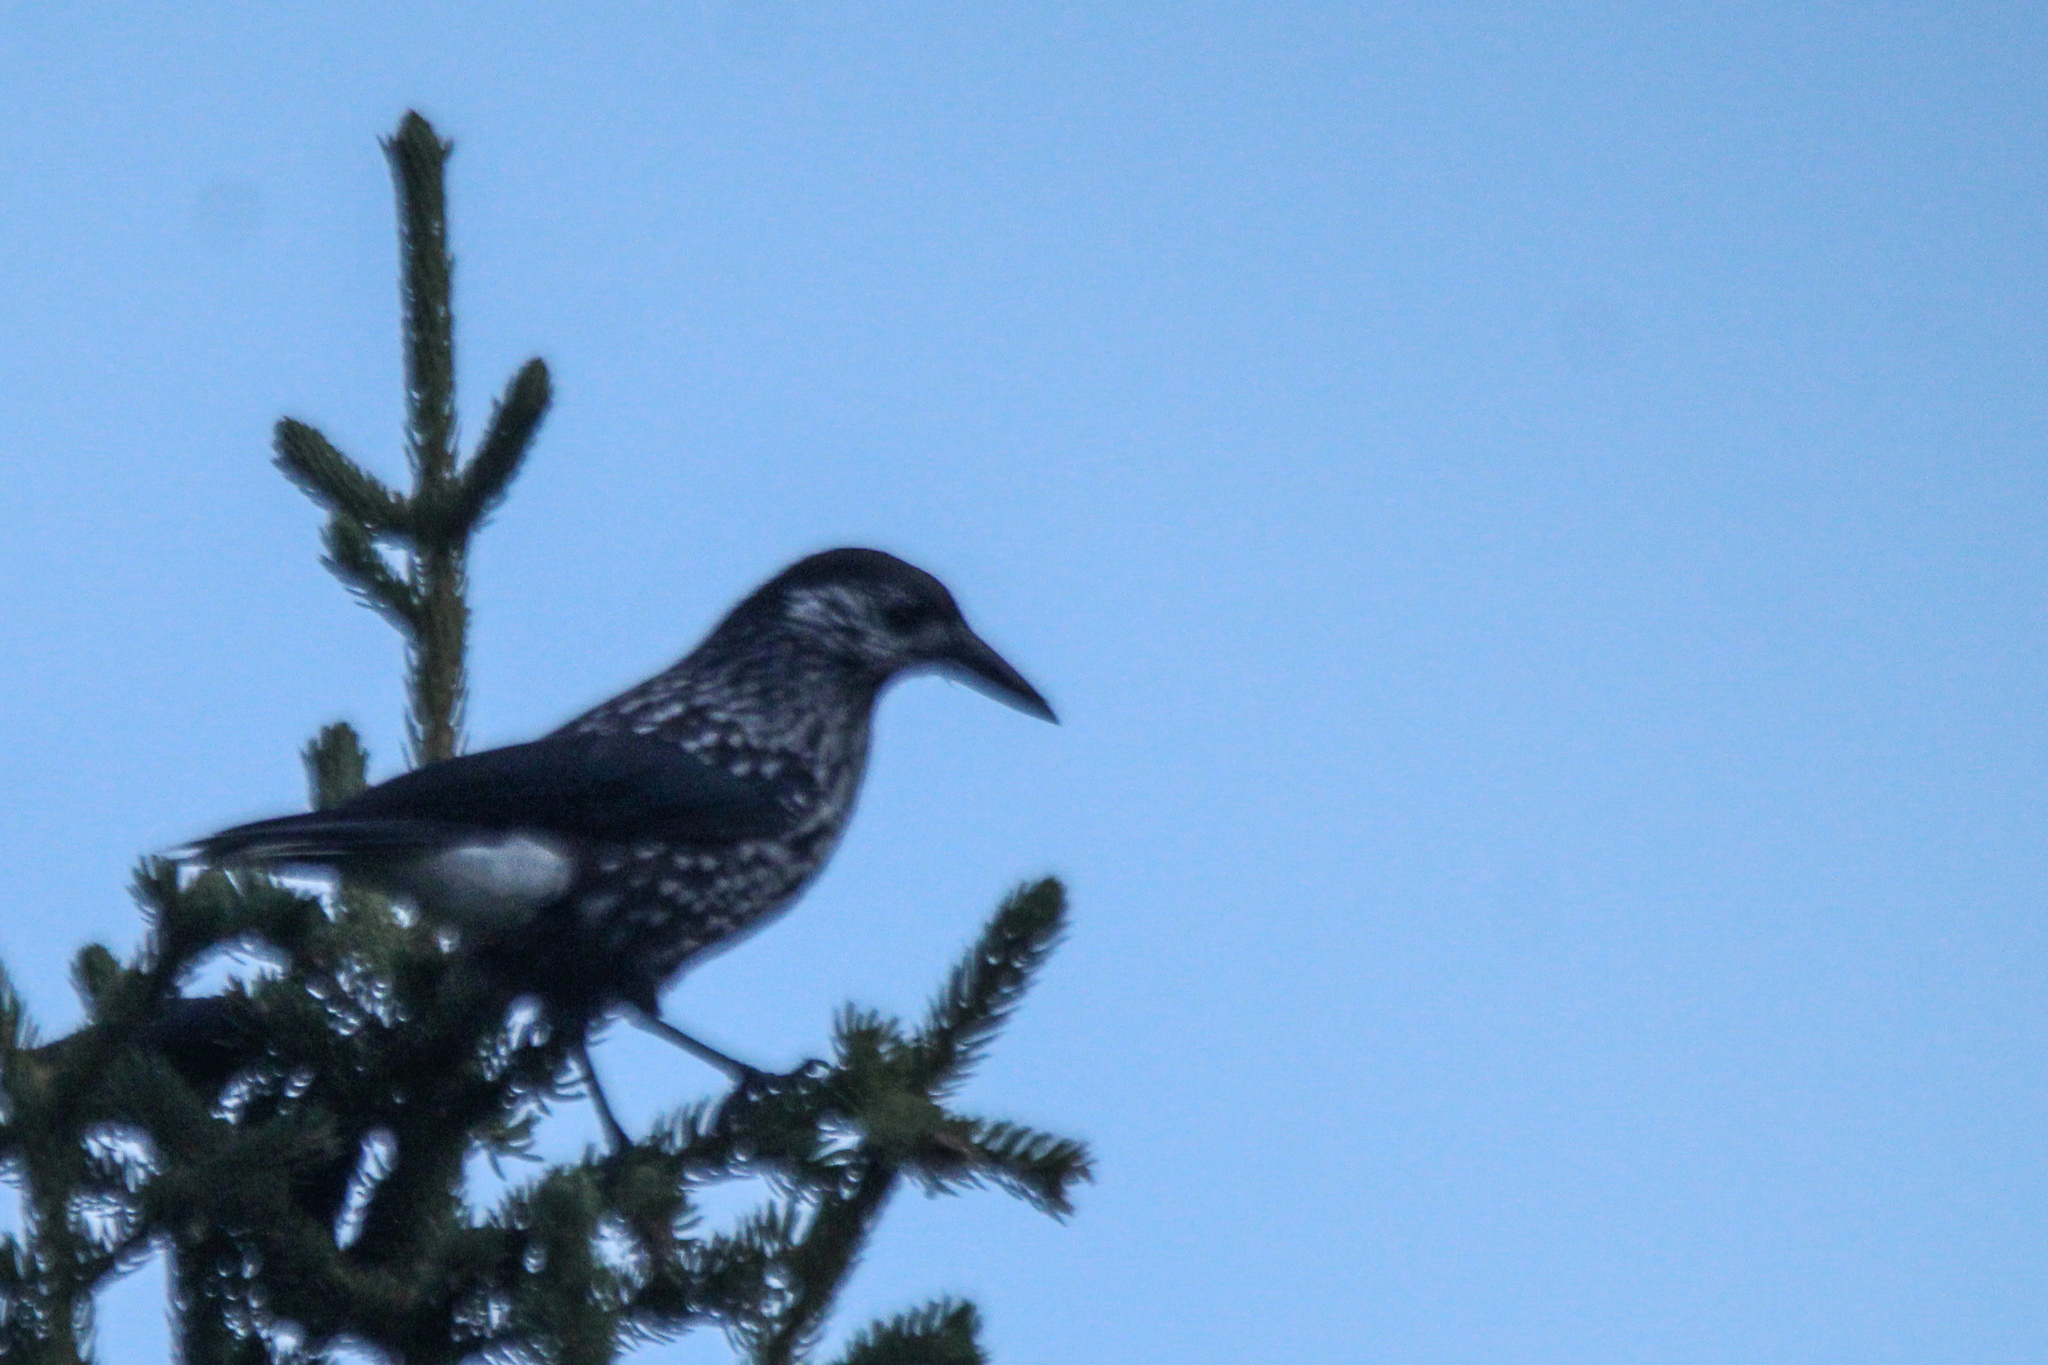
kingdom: Animalia
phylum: Chordata
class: Aves
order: Passeriformes
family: Corvidae
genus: Nucifraga
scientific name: Nucifraga caryocatactes
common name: Spotted nutcracker
